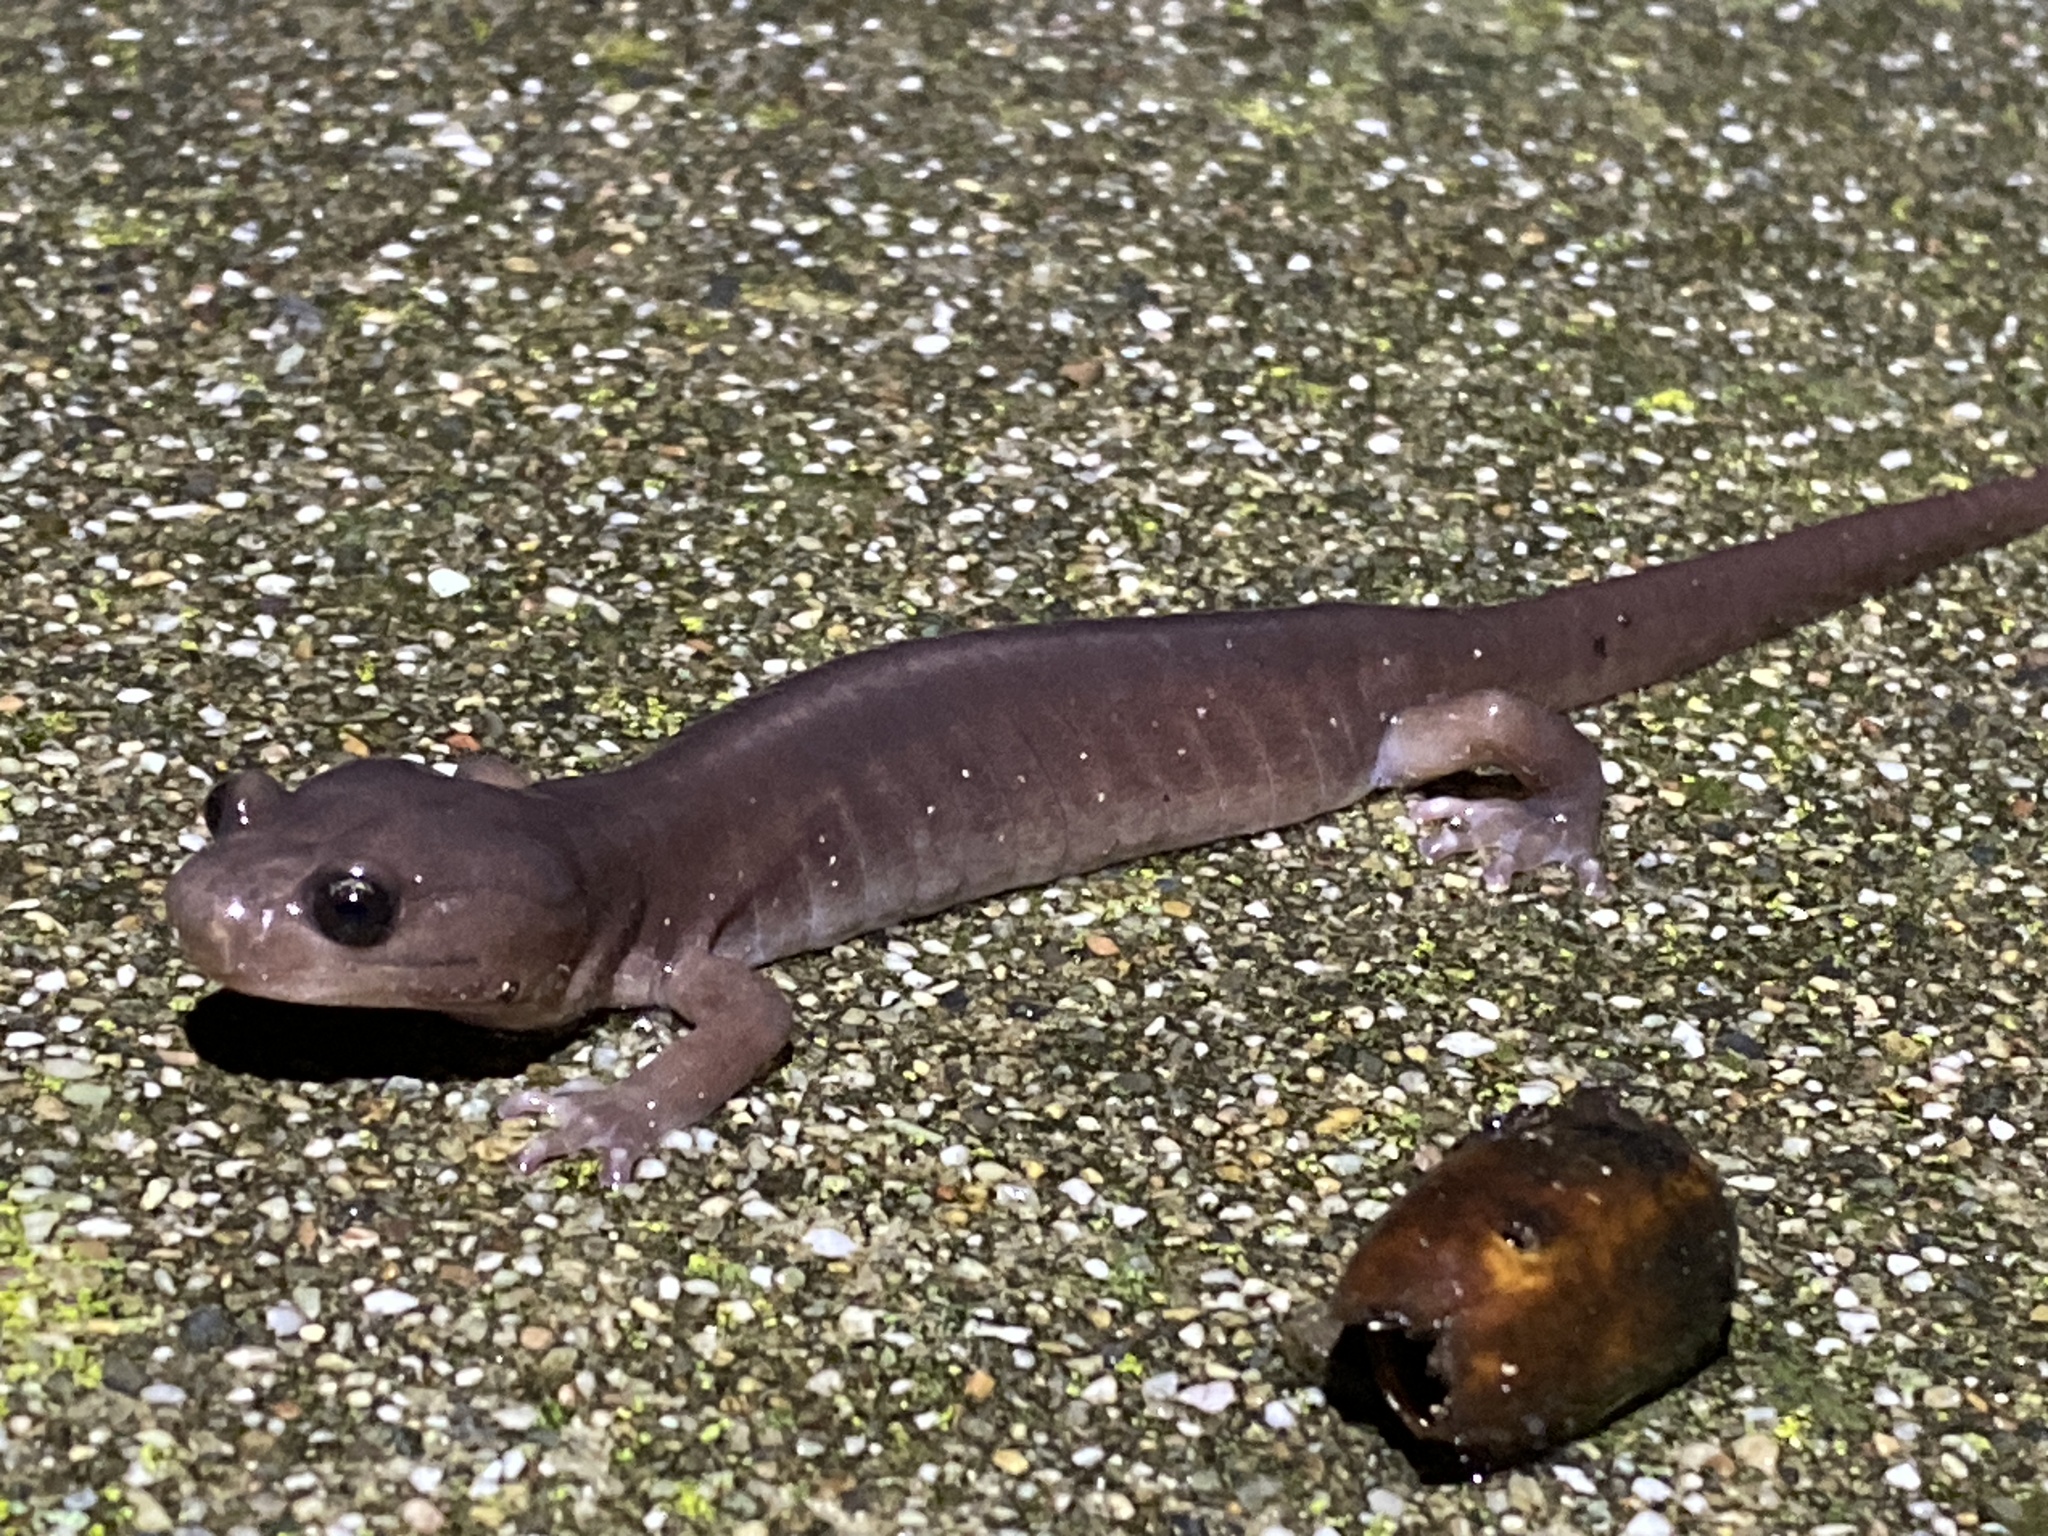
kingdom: Animalia
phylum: Chordata
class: Amphibia
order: Caudata
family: Plethodontidae
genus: Aneides
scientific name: Aneides lugubris
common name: Arboreal salamander
